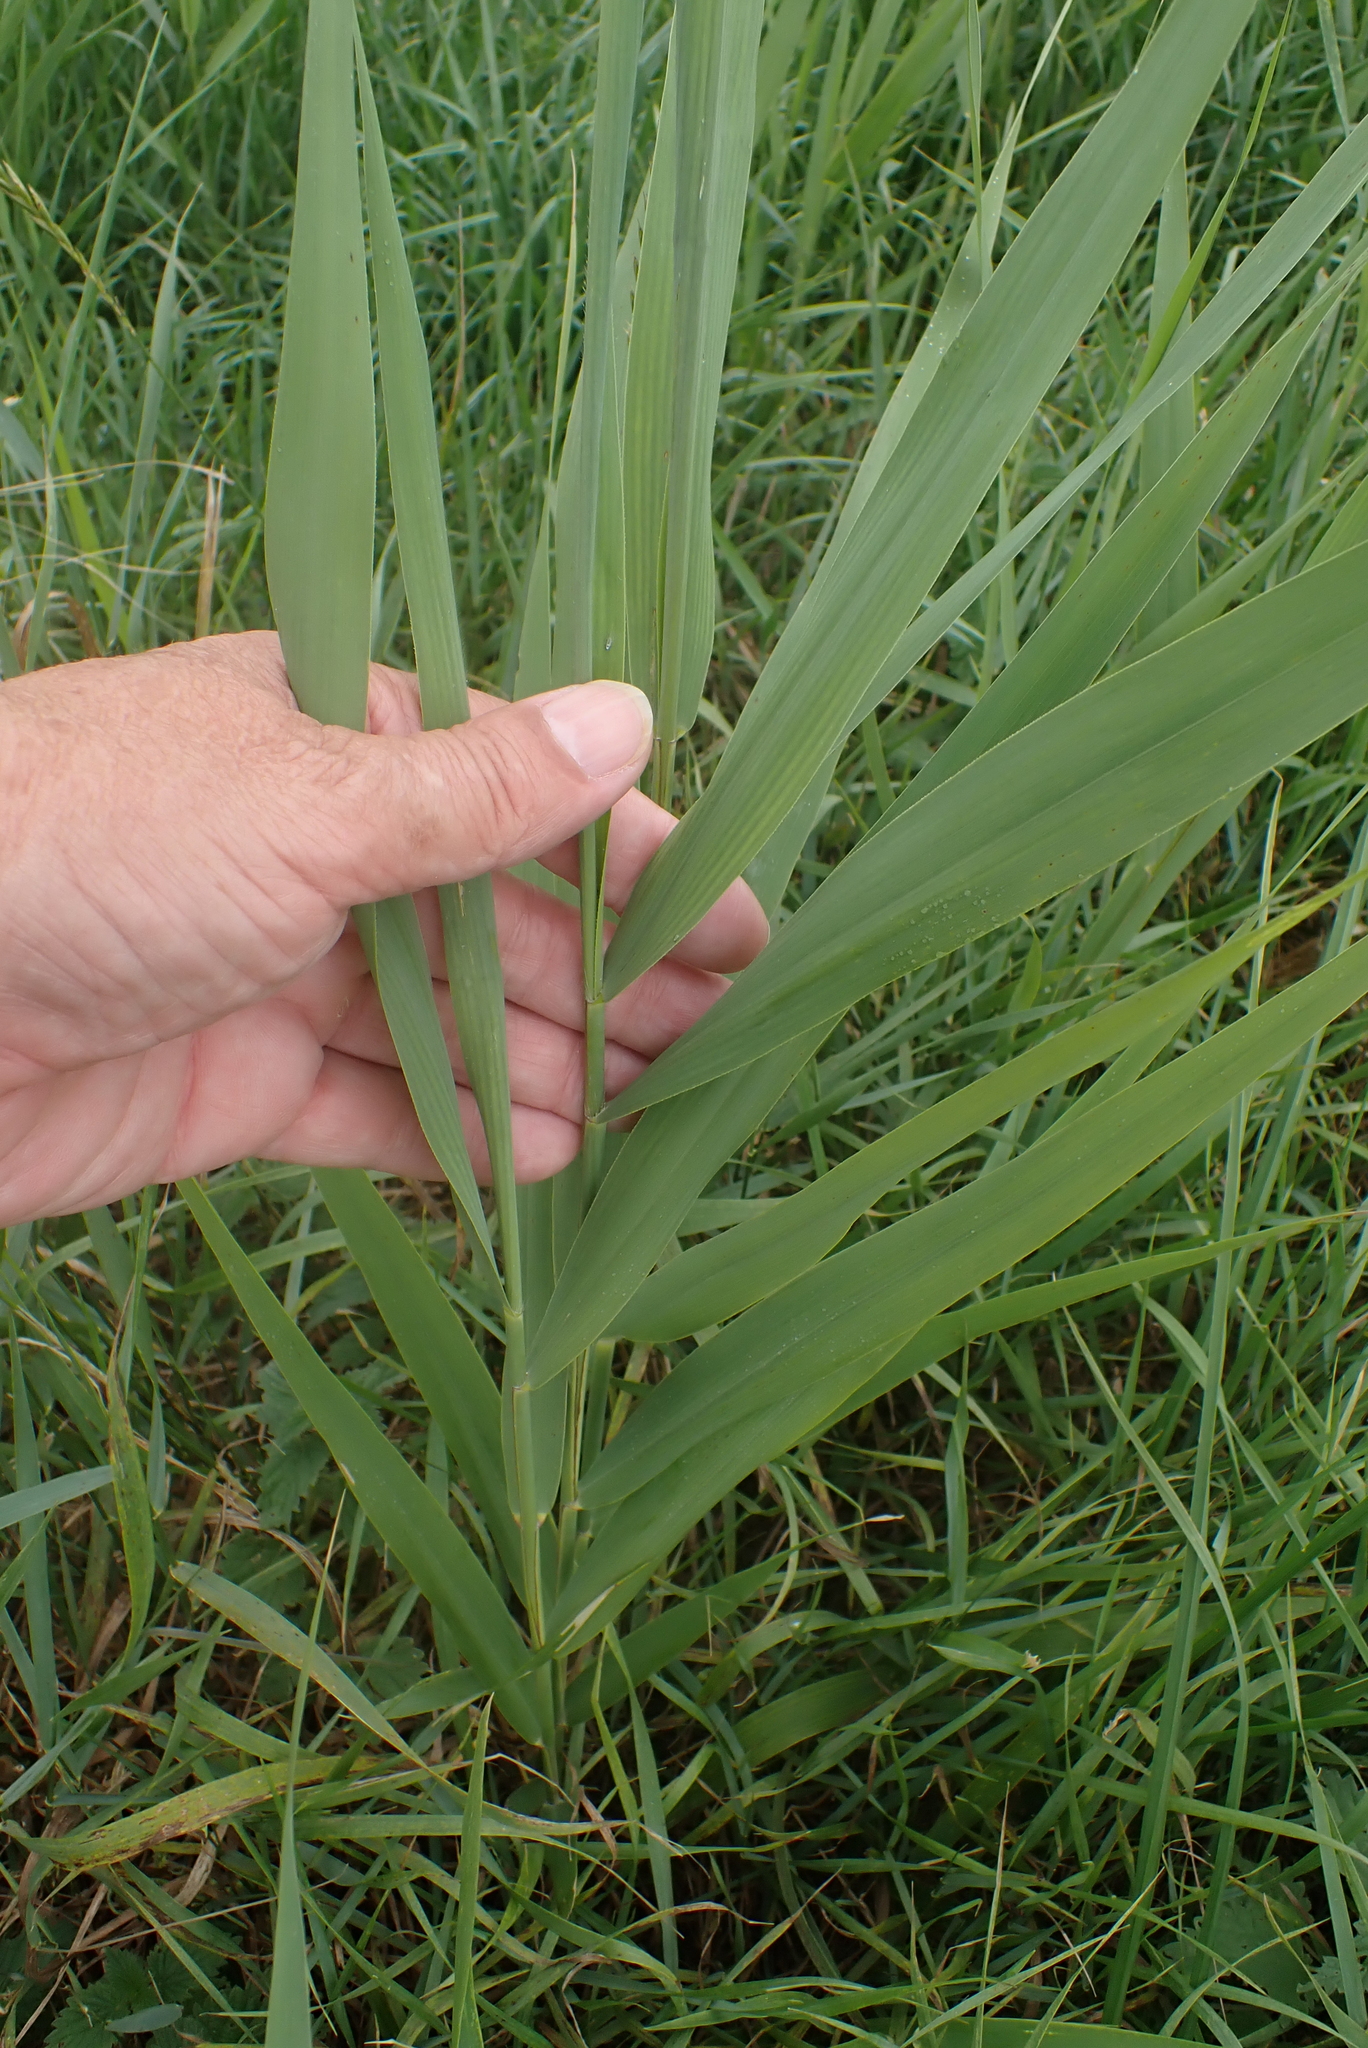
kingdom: Plantae
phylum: Tracheophyta
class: Liliopsida
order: Poales
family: Poaceae
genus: Phragmites
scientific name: Phragmites australis
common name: Common reed
